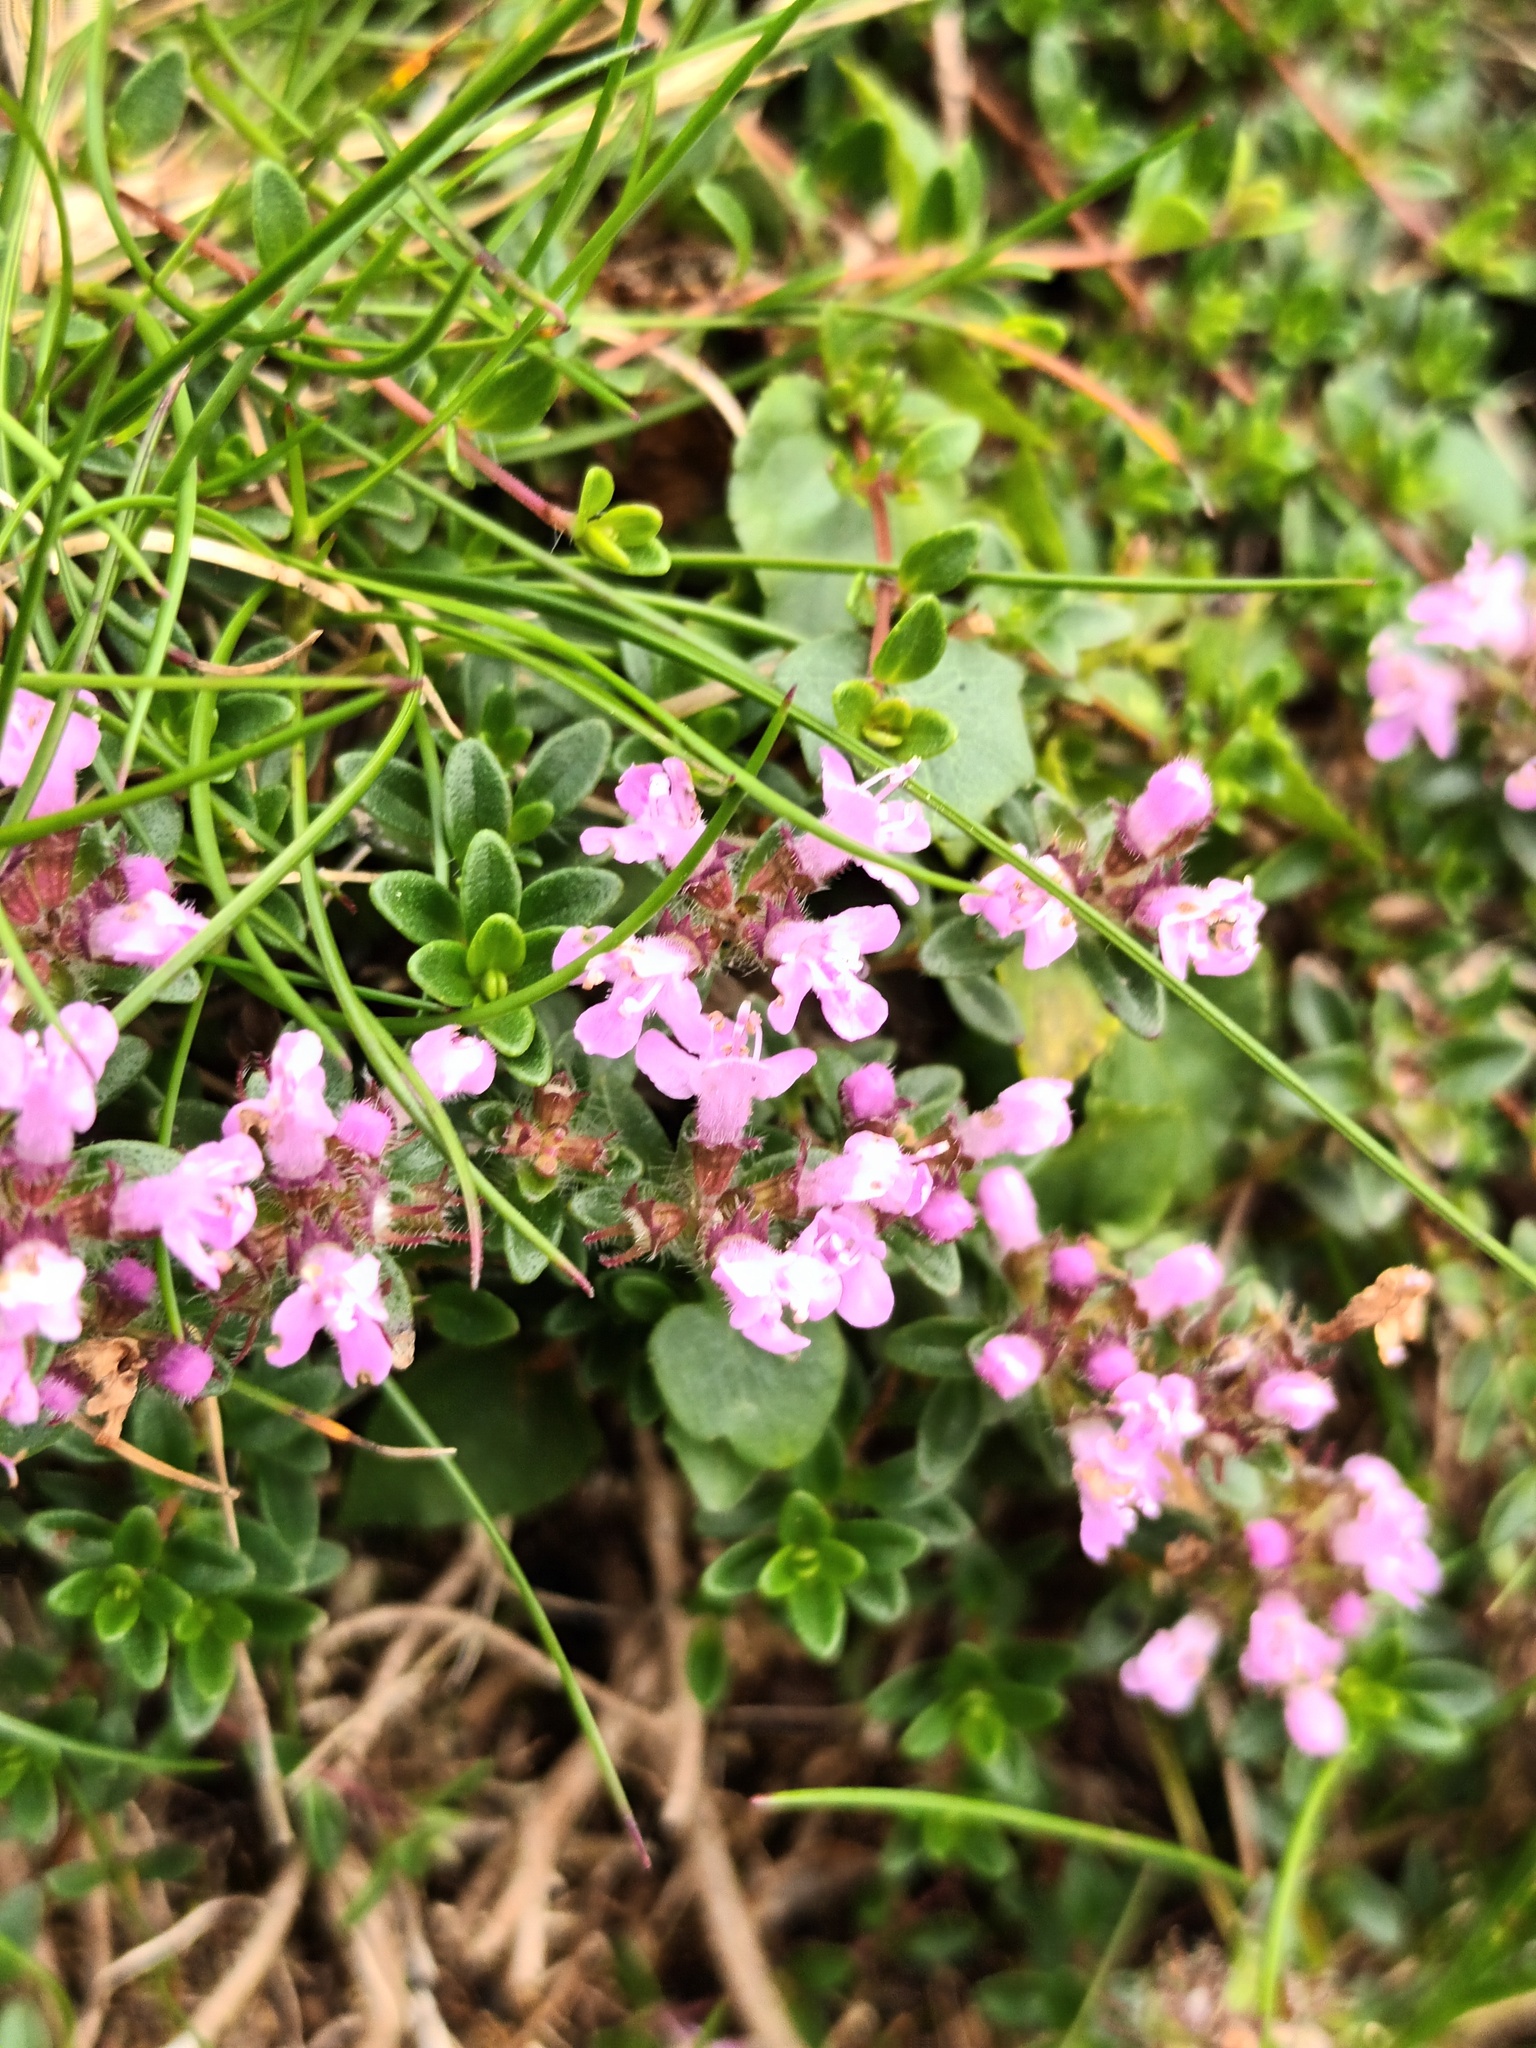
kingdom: Plantae
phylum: Tracheophyta
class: Magnoliopsida
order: Lamiales
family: Lamiaceae
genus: Thymus
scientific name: Thymus praecox
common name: Wild thyme
